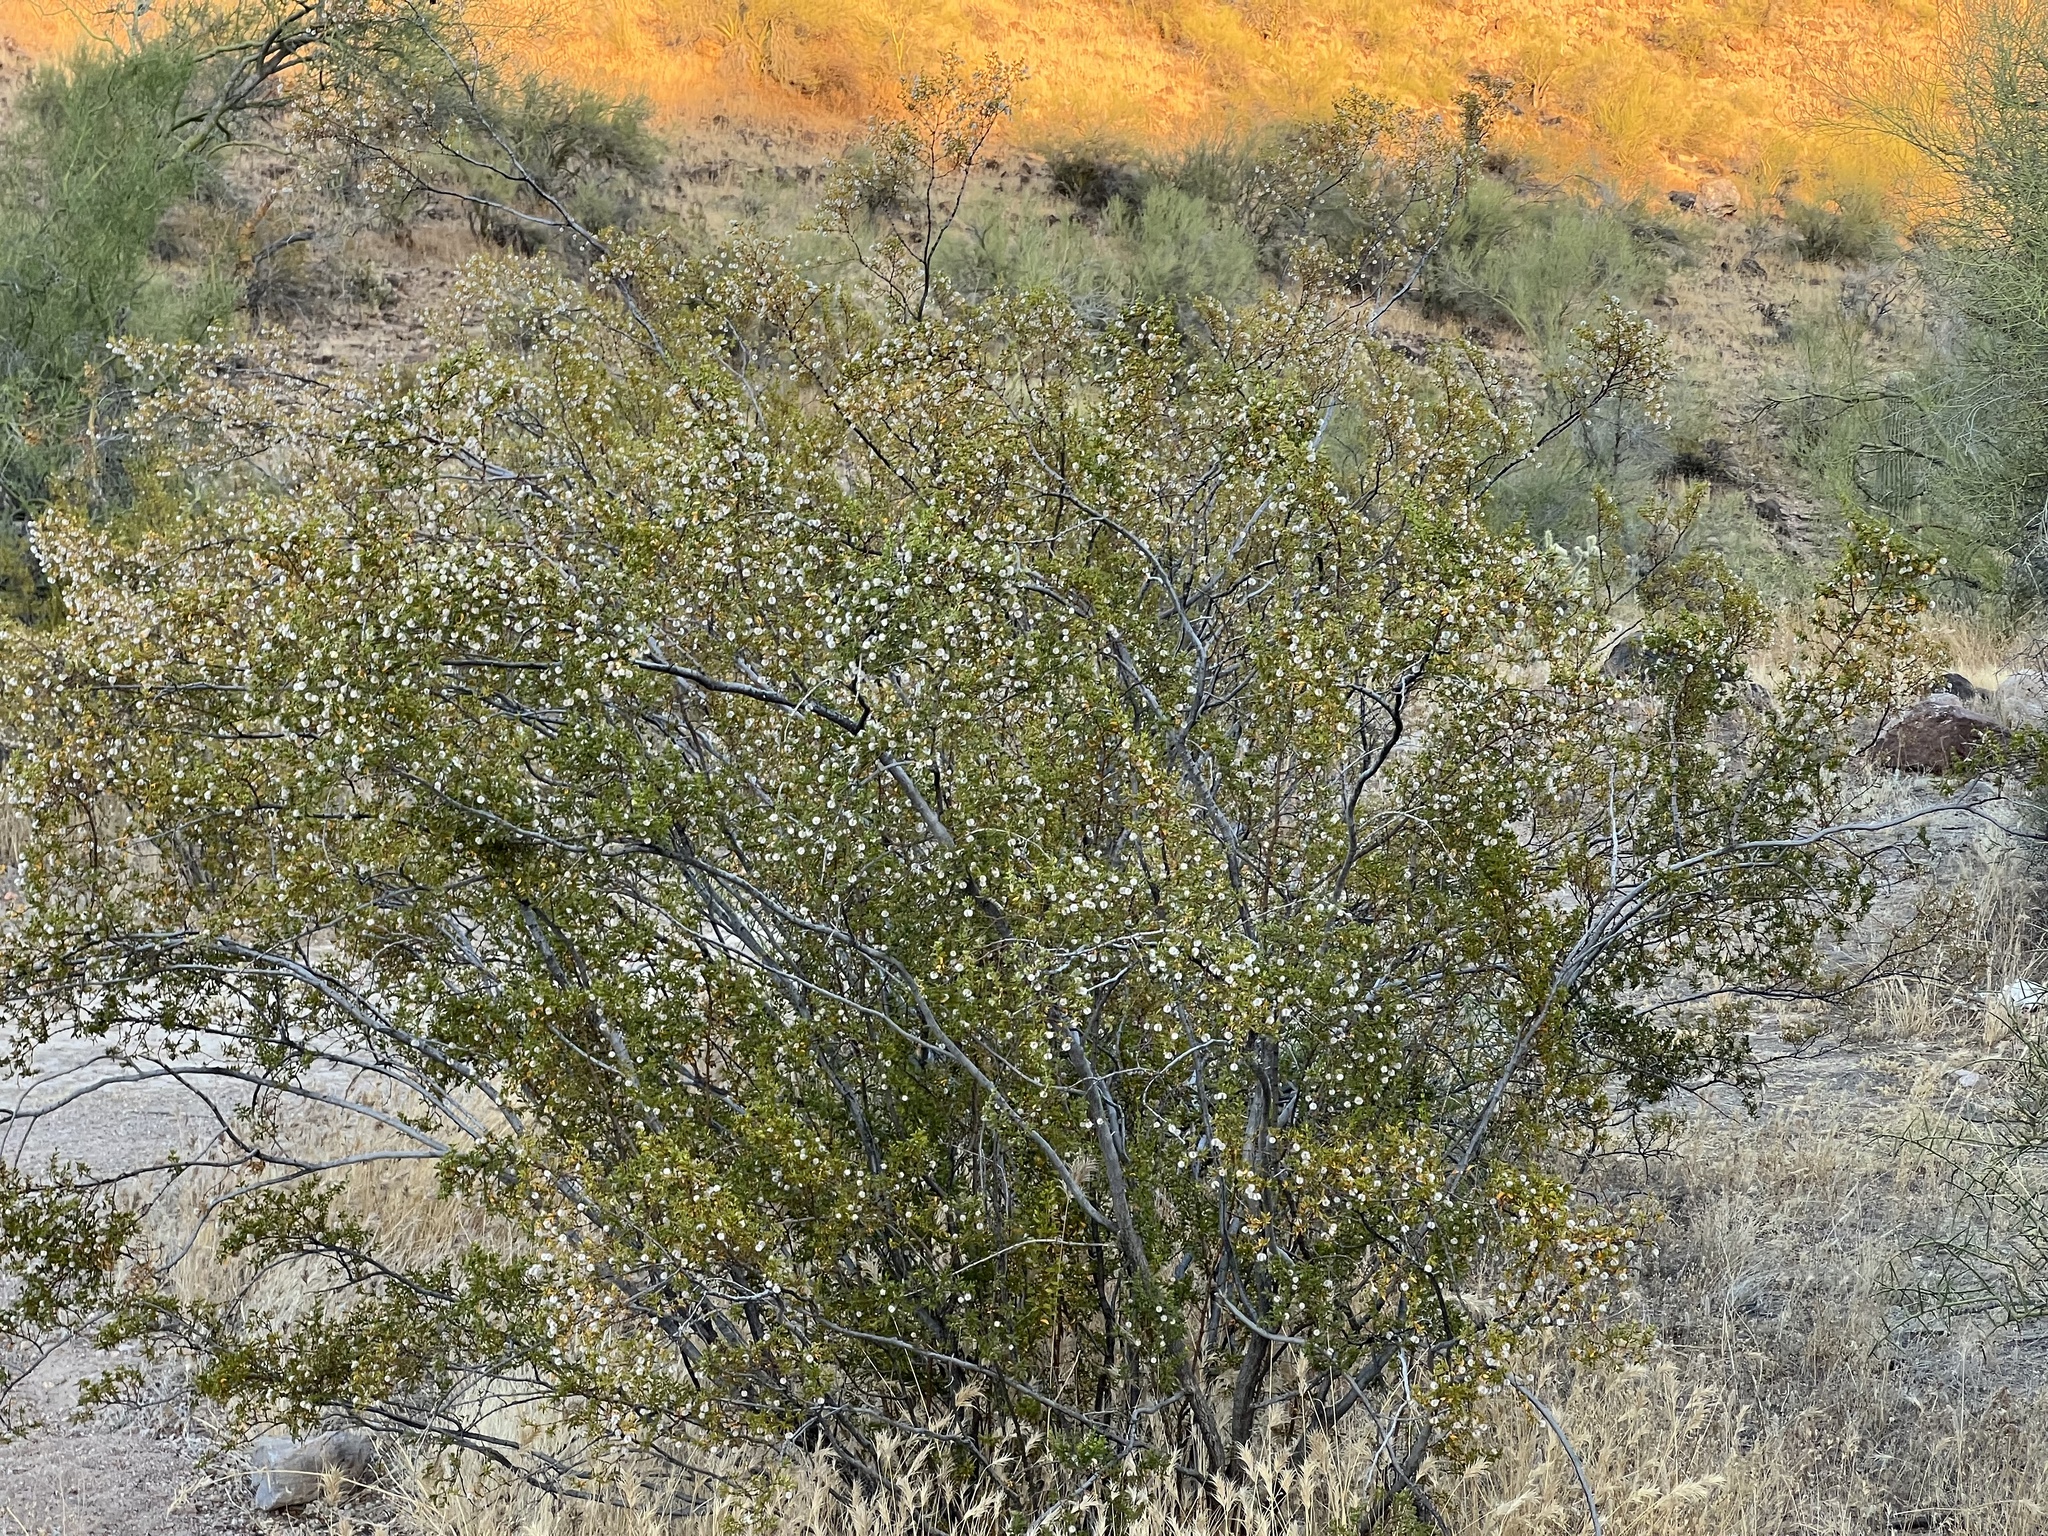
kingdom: Plantae
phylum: Tracheophyta
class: Magnoliopsida
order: Zygophyllales
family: Zygophyllaceae
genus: Larrea
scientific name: Larrea tridentata
